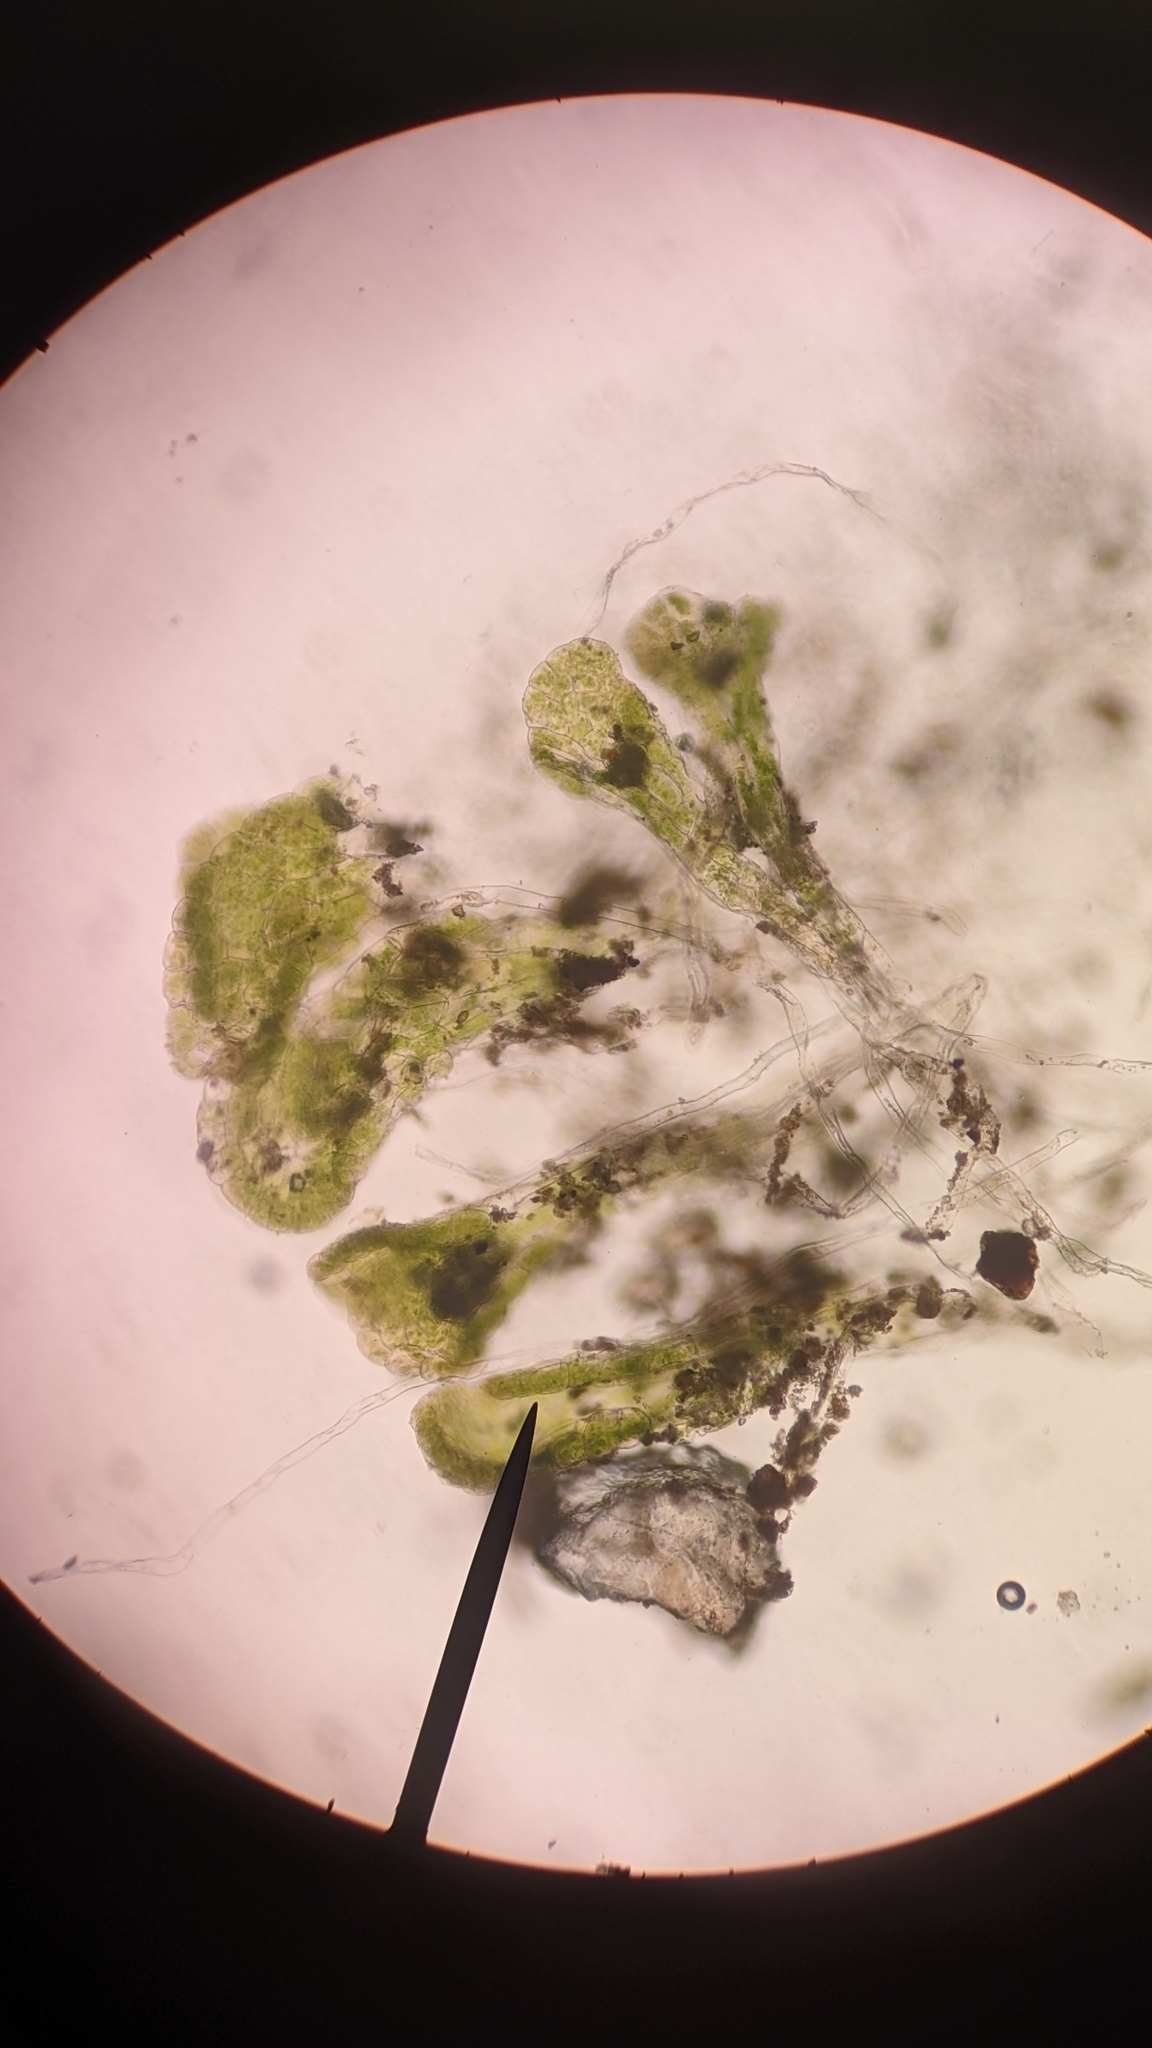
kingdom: Plantae
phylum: Marchantiophyta
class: Marchantiopsida
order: Sphaerocarpales
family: Sphaerocarpaceae
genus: Sphaerocarpos
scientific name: Sphaerocarpos texanus
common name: Texas balloonwort
